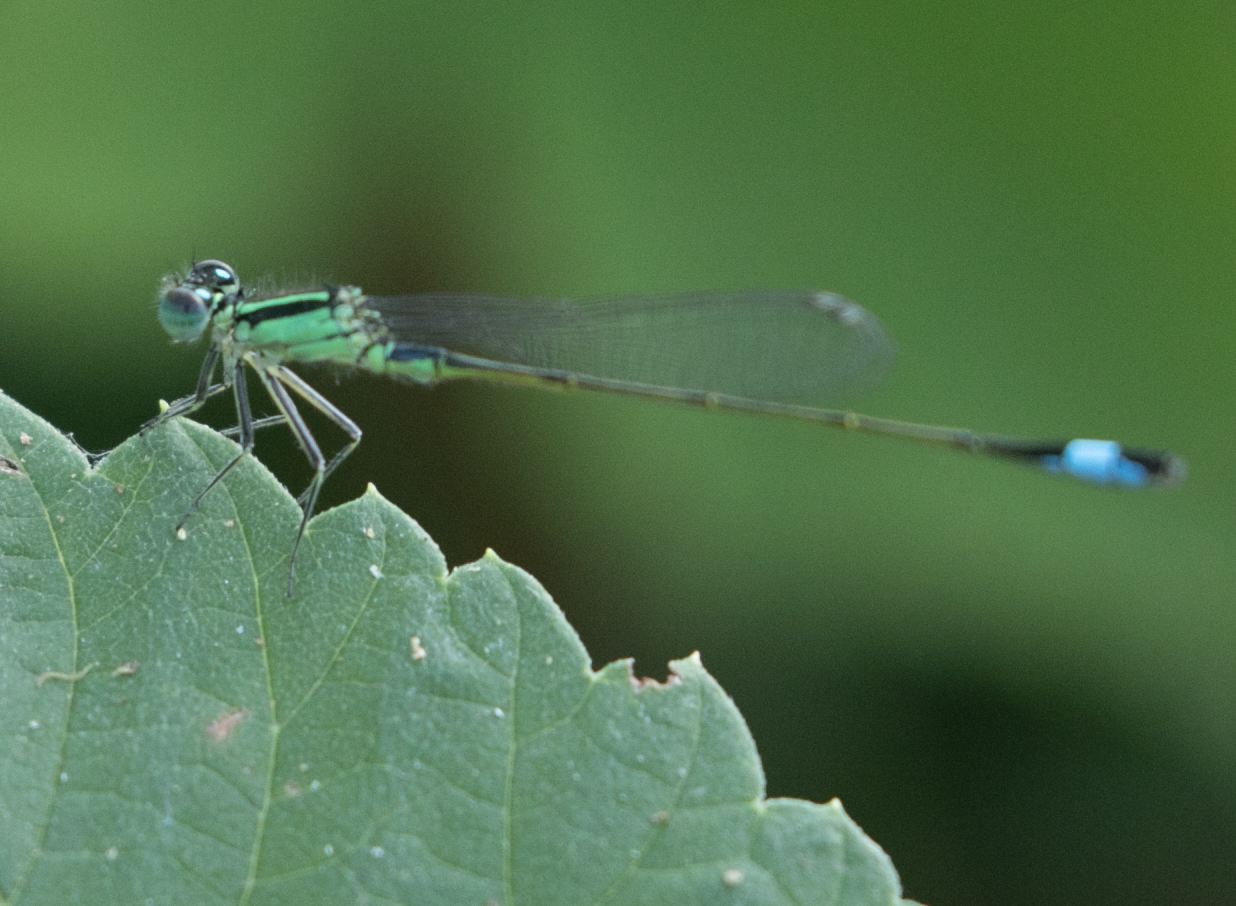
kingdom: Animalia
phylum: Arthropoda
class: Insecta
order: Odonata
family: Coenagrionidae
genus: Ischnura
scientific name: Ischnura elegans
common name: Blue-tailed damselfly
